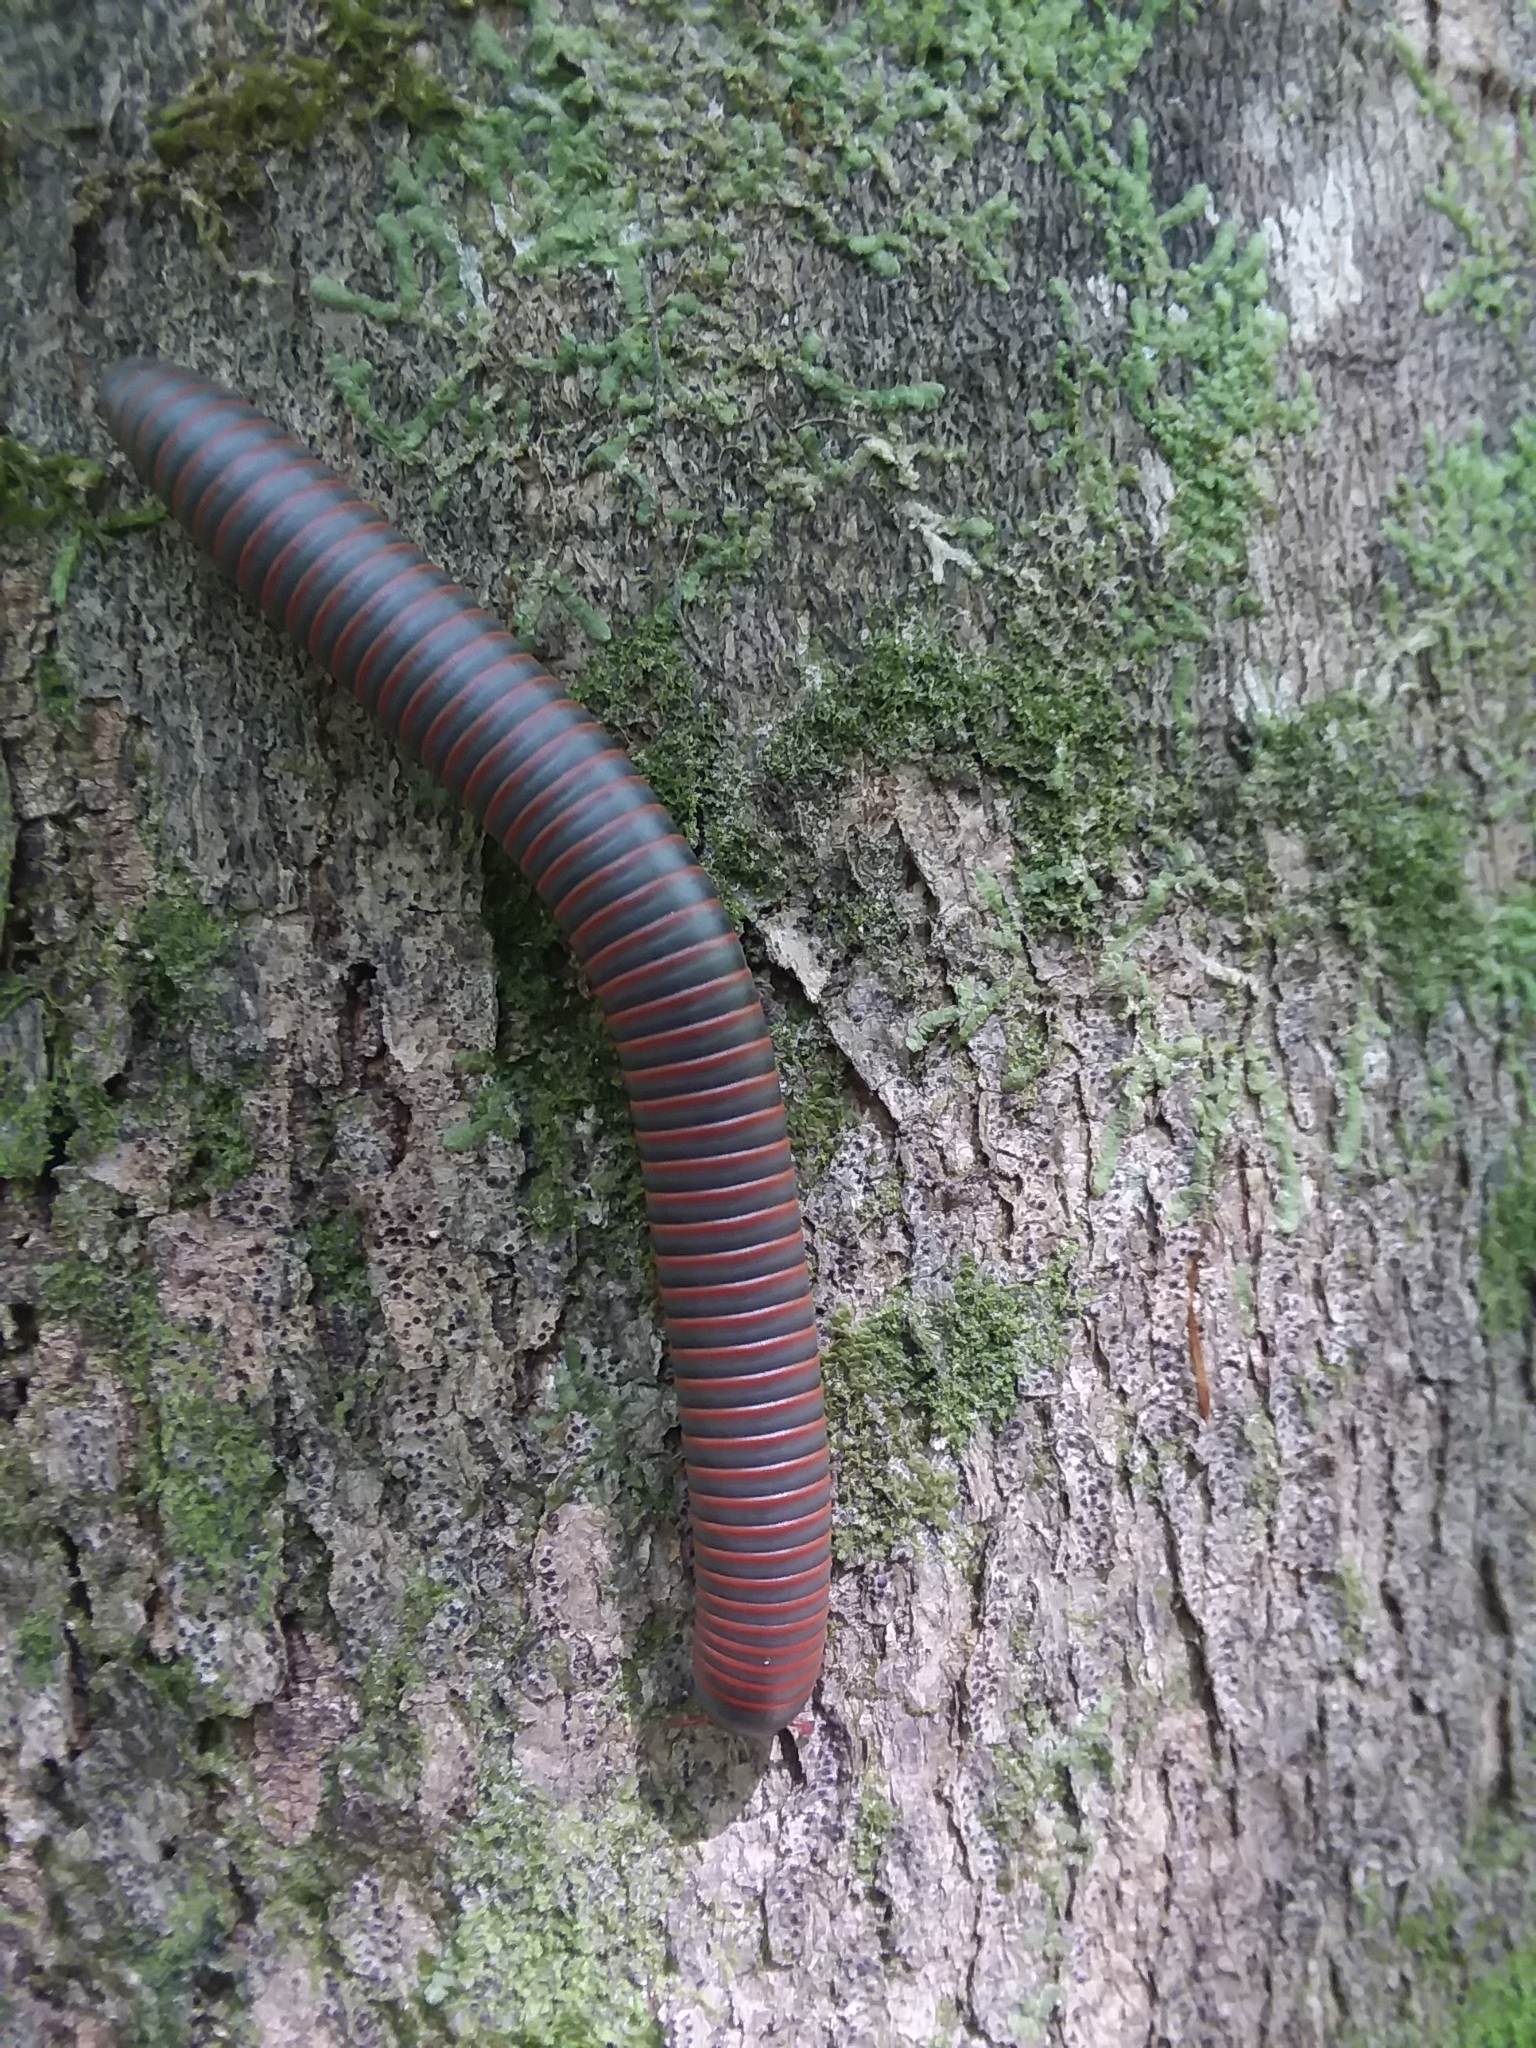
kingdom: Animalia
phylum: Arthropoda
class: Diplopoda
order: Spirobolida
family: Spirobolidae
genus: Narceus
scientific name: Narceus
